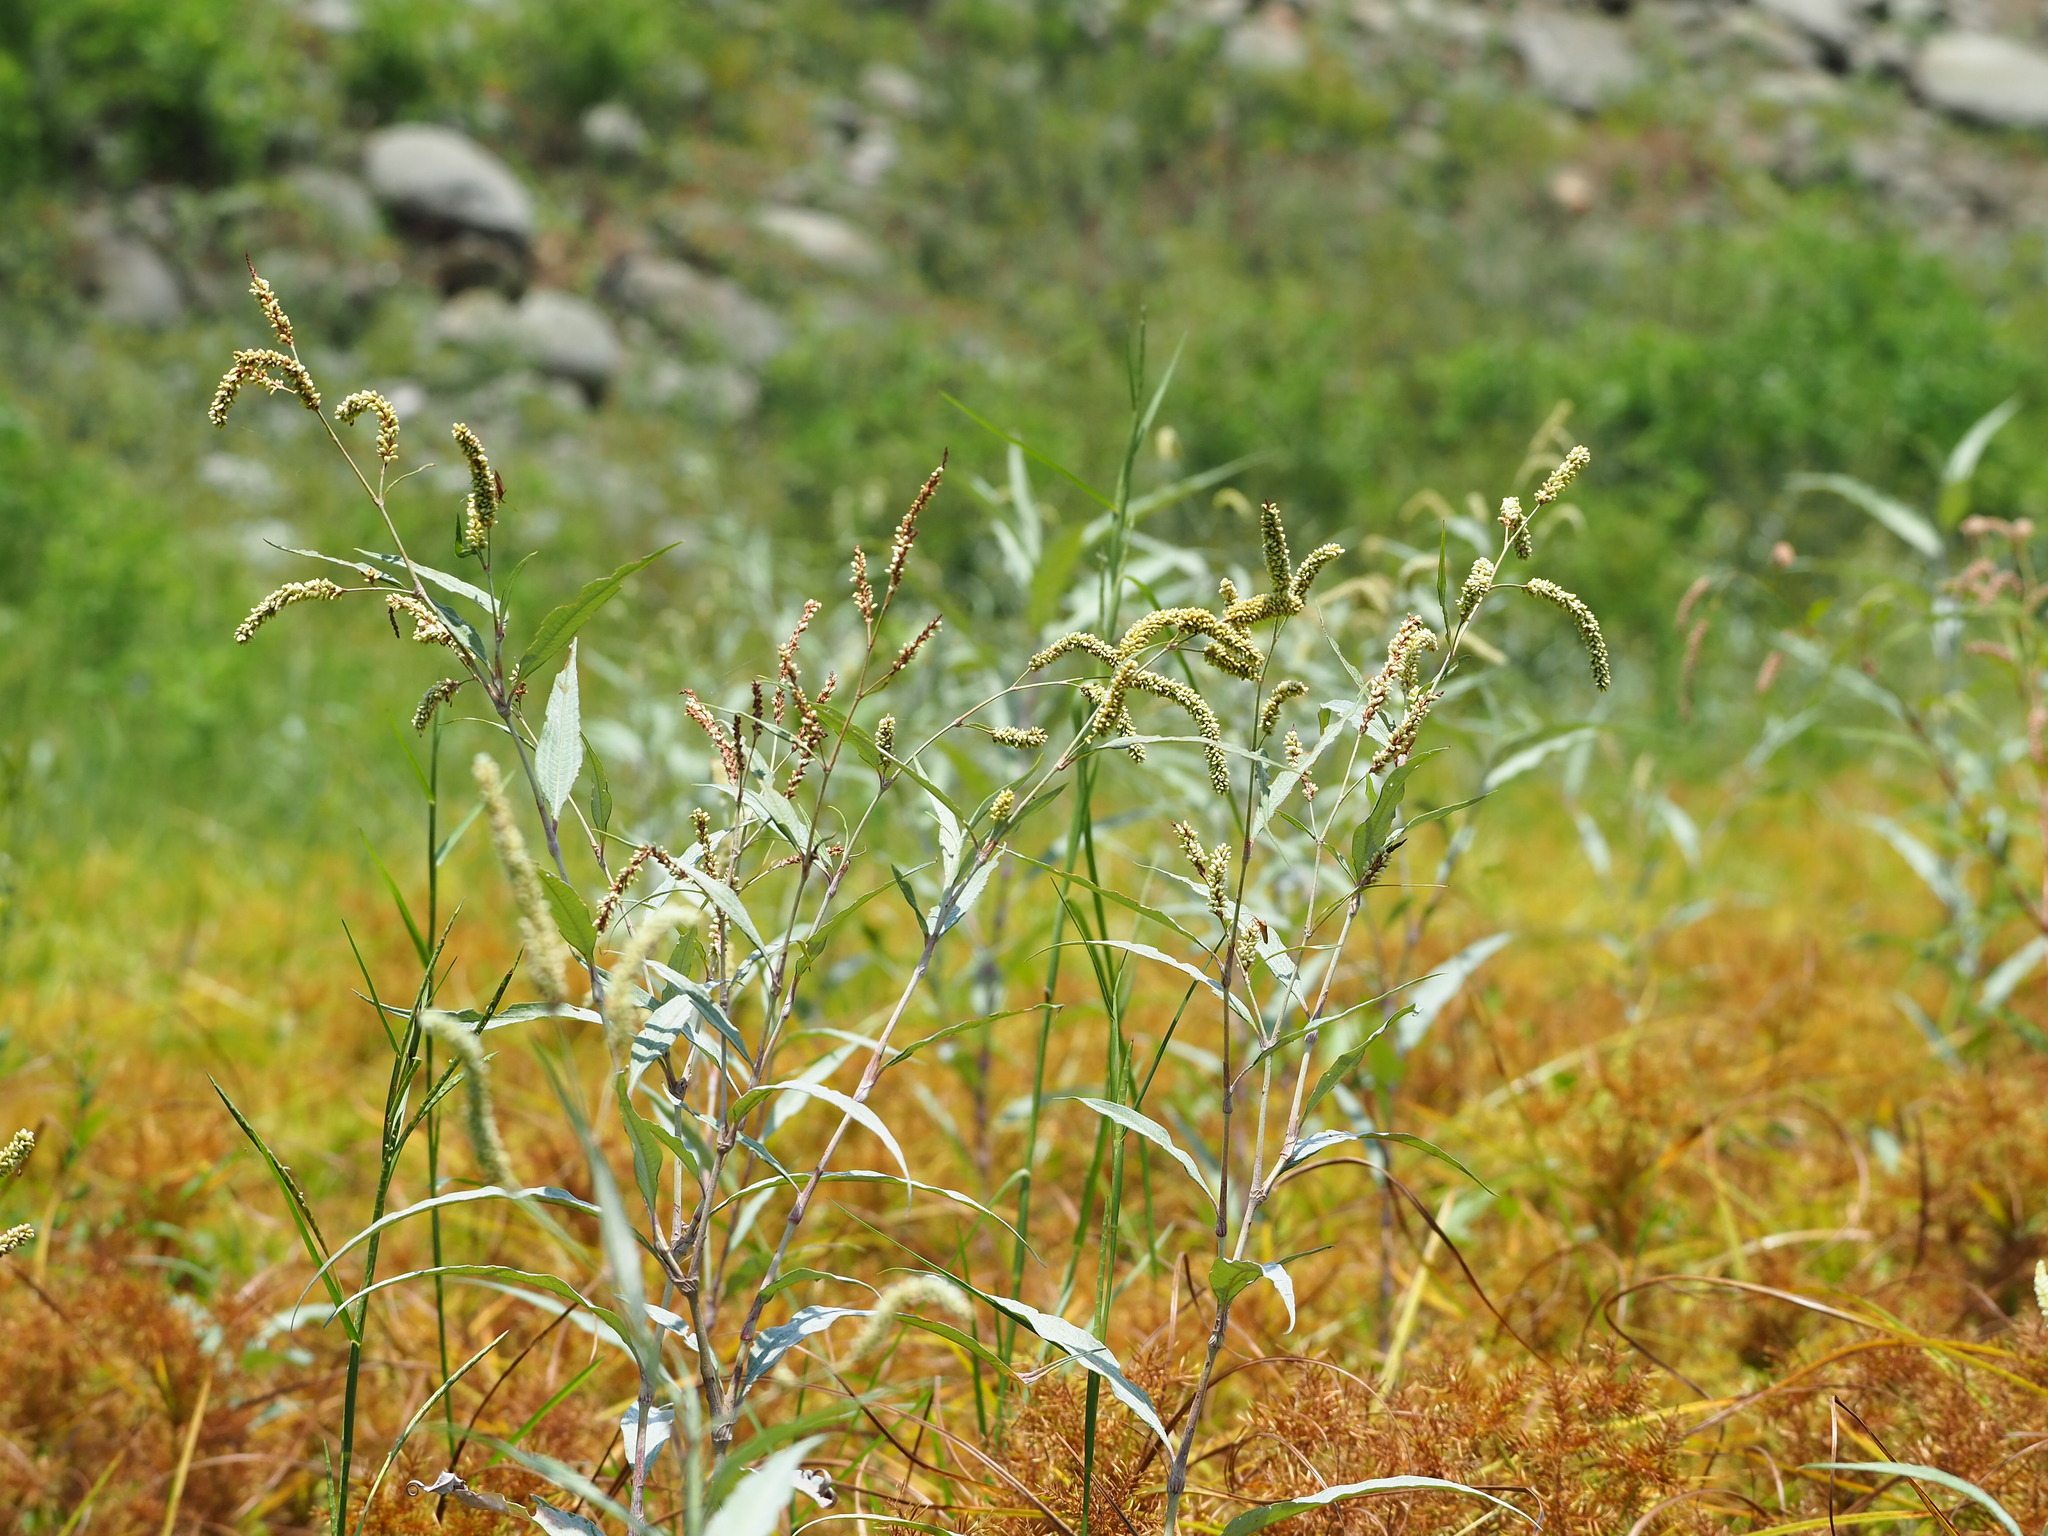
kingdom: Plantae
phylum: Tracheophyta
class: Magnoliopsida
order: Caryophyllales
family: Polygonaceae
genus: Persicaria
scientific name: Persicaria lanata
